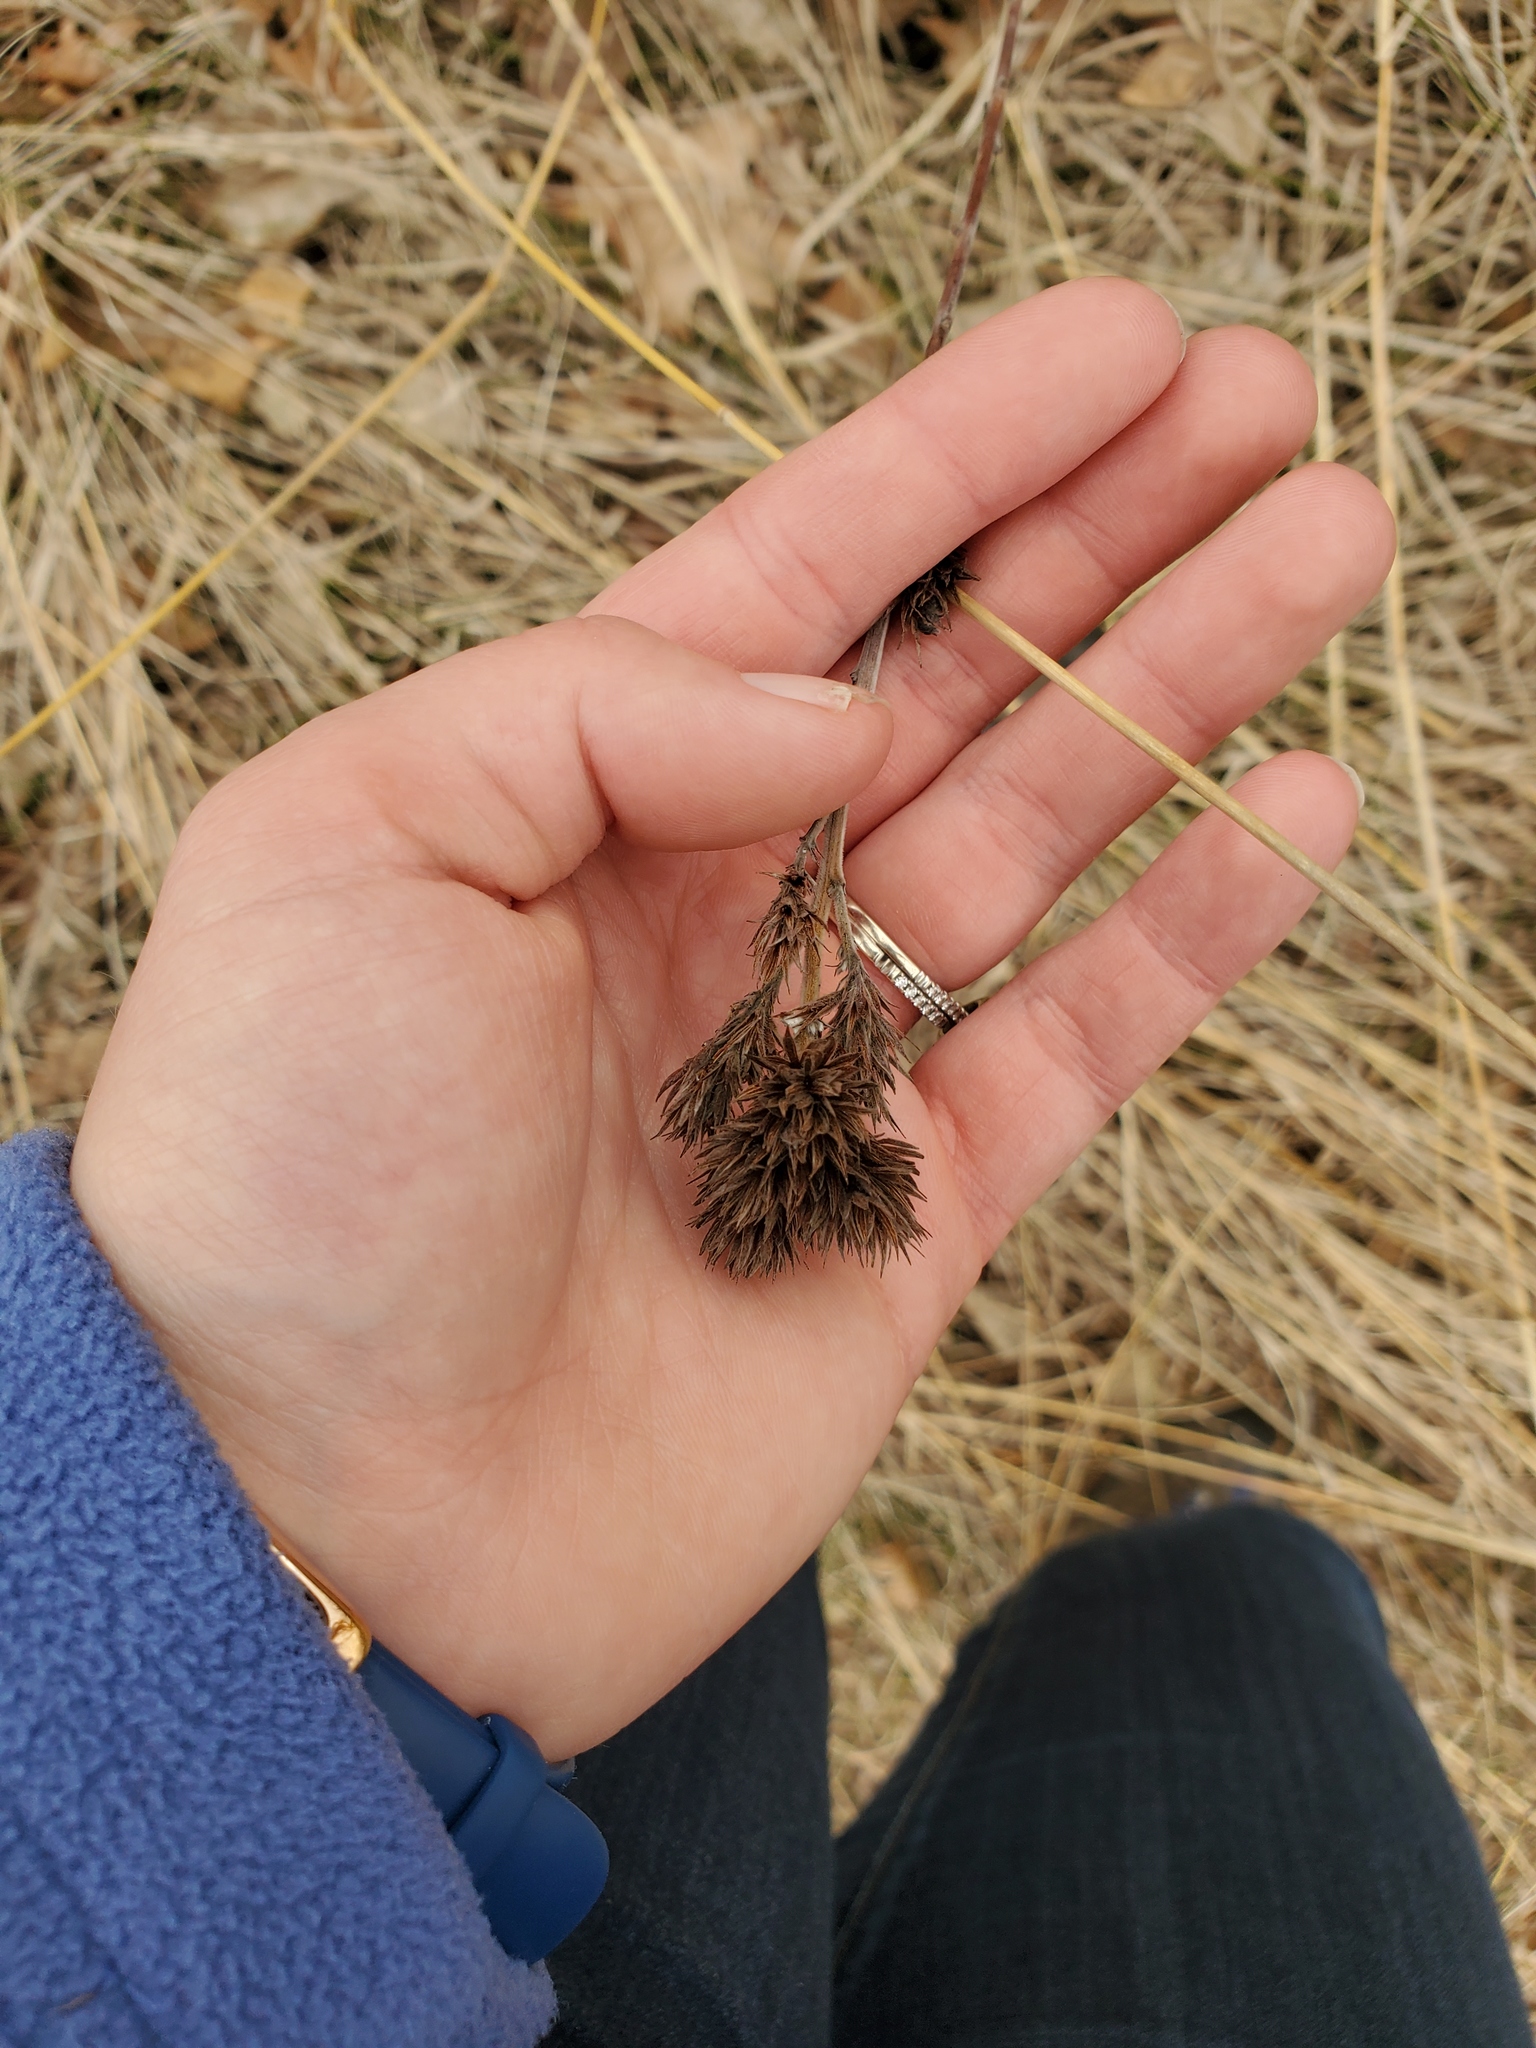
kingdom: Plantae
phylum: Tracheophyta
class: Magnoliopsida
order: Fabales
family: Fabaceae
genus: Lespedeza
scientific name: Lespedeza capitata
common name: Dusty clover
